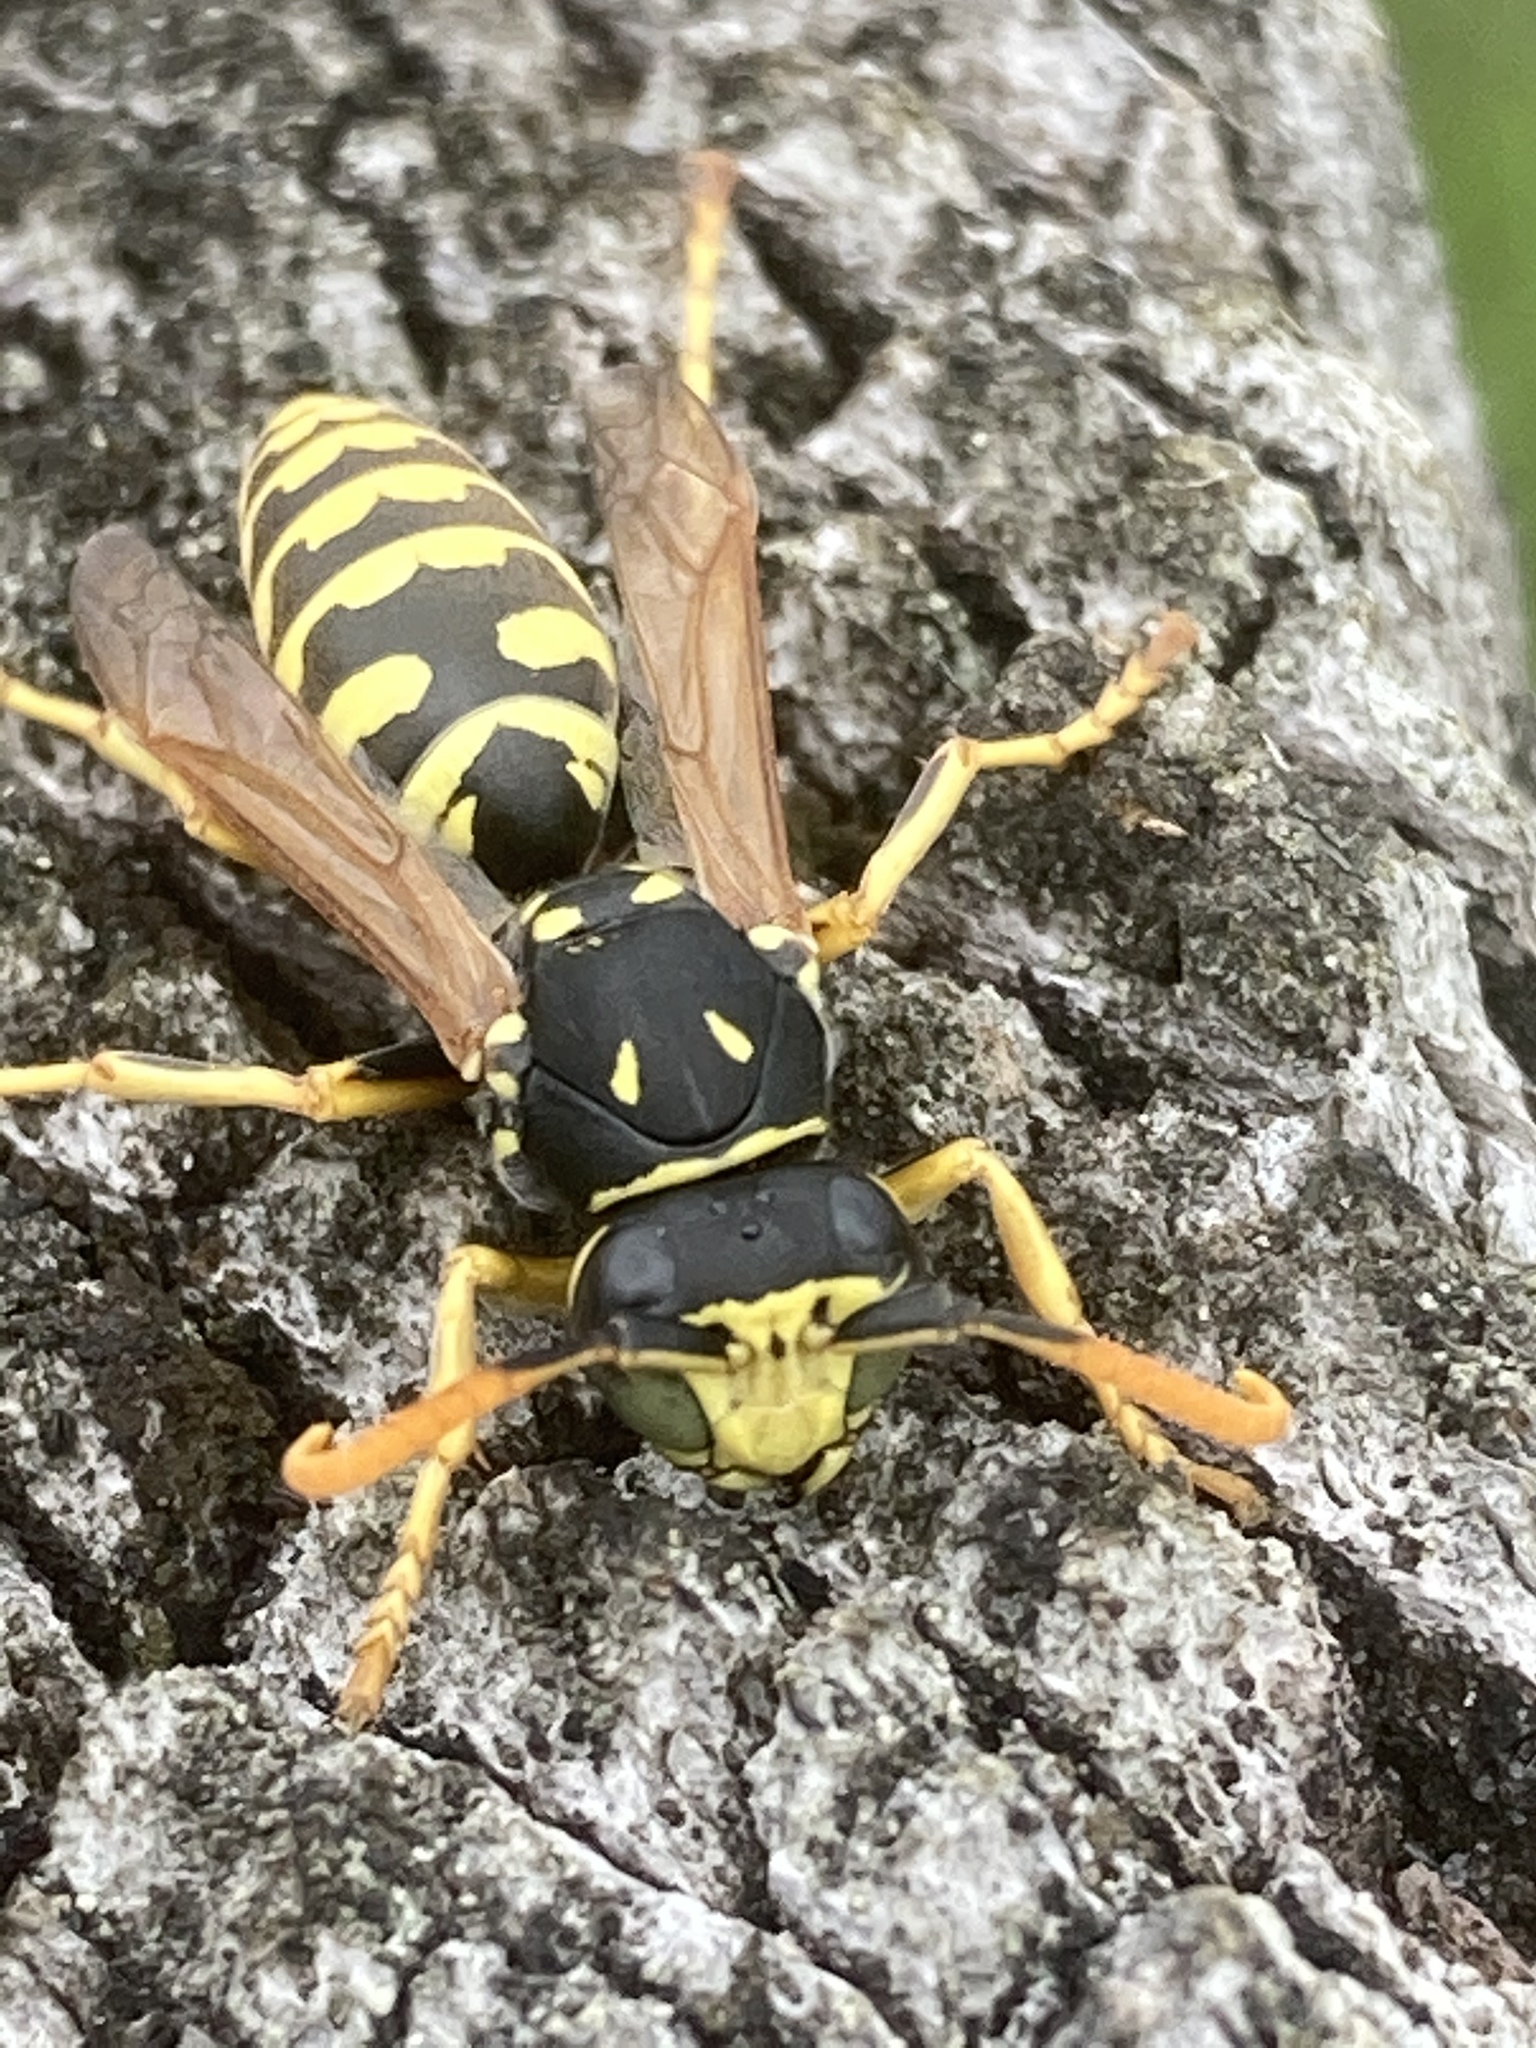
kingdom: Animalia
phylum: Arthropoda
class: Insecta
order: Hymenoptera
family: Eumenidae
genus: Polistes
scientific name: Polistes dominula
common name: Paper wasp
